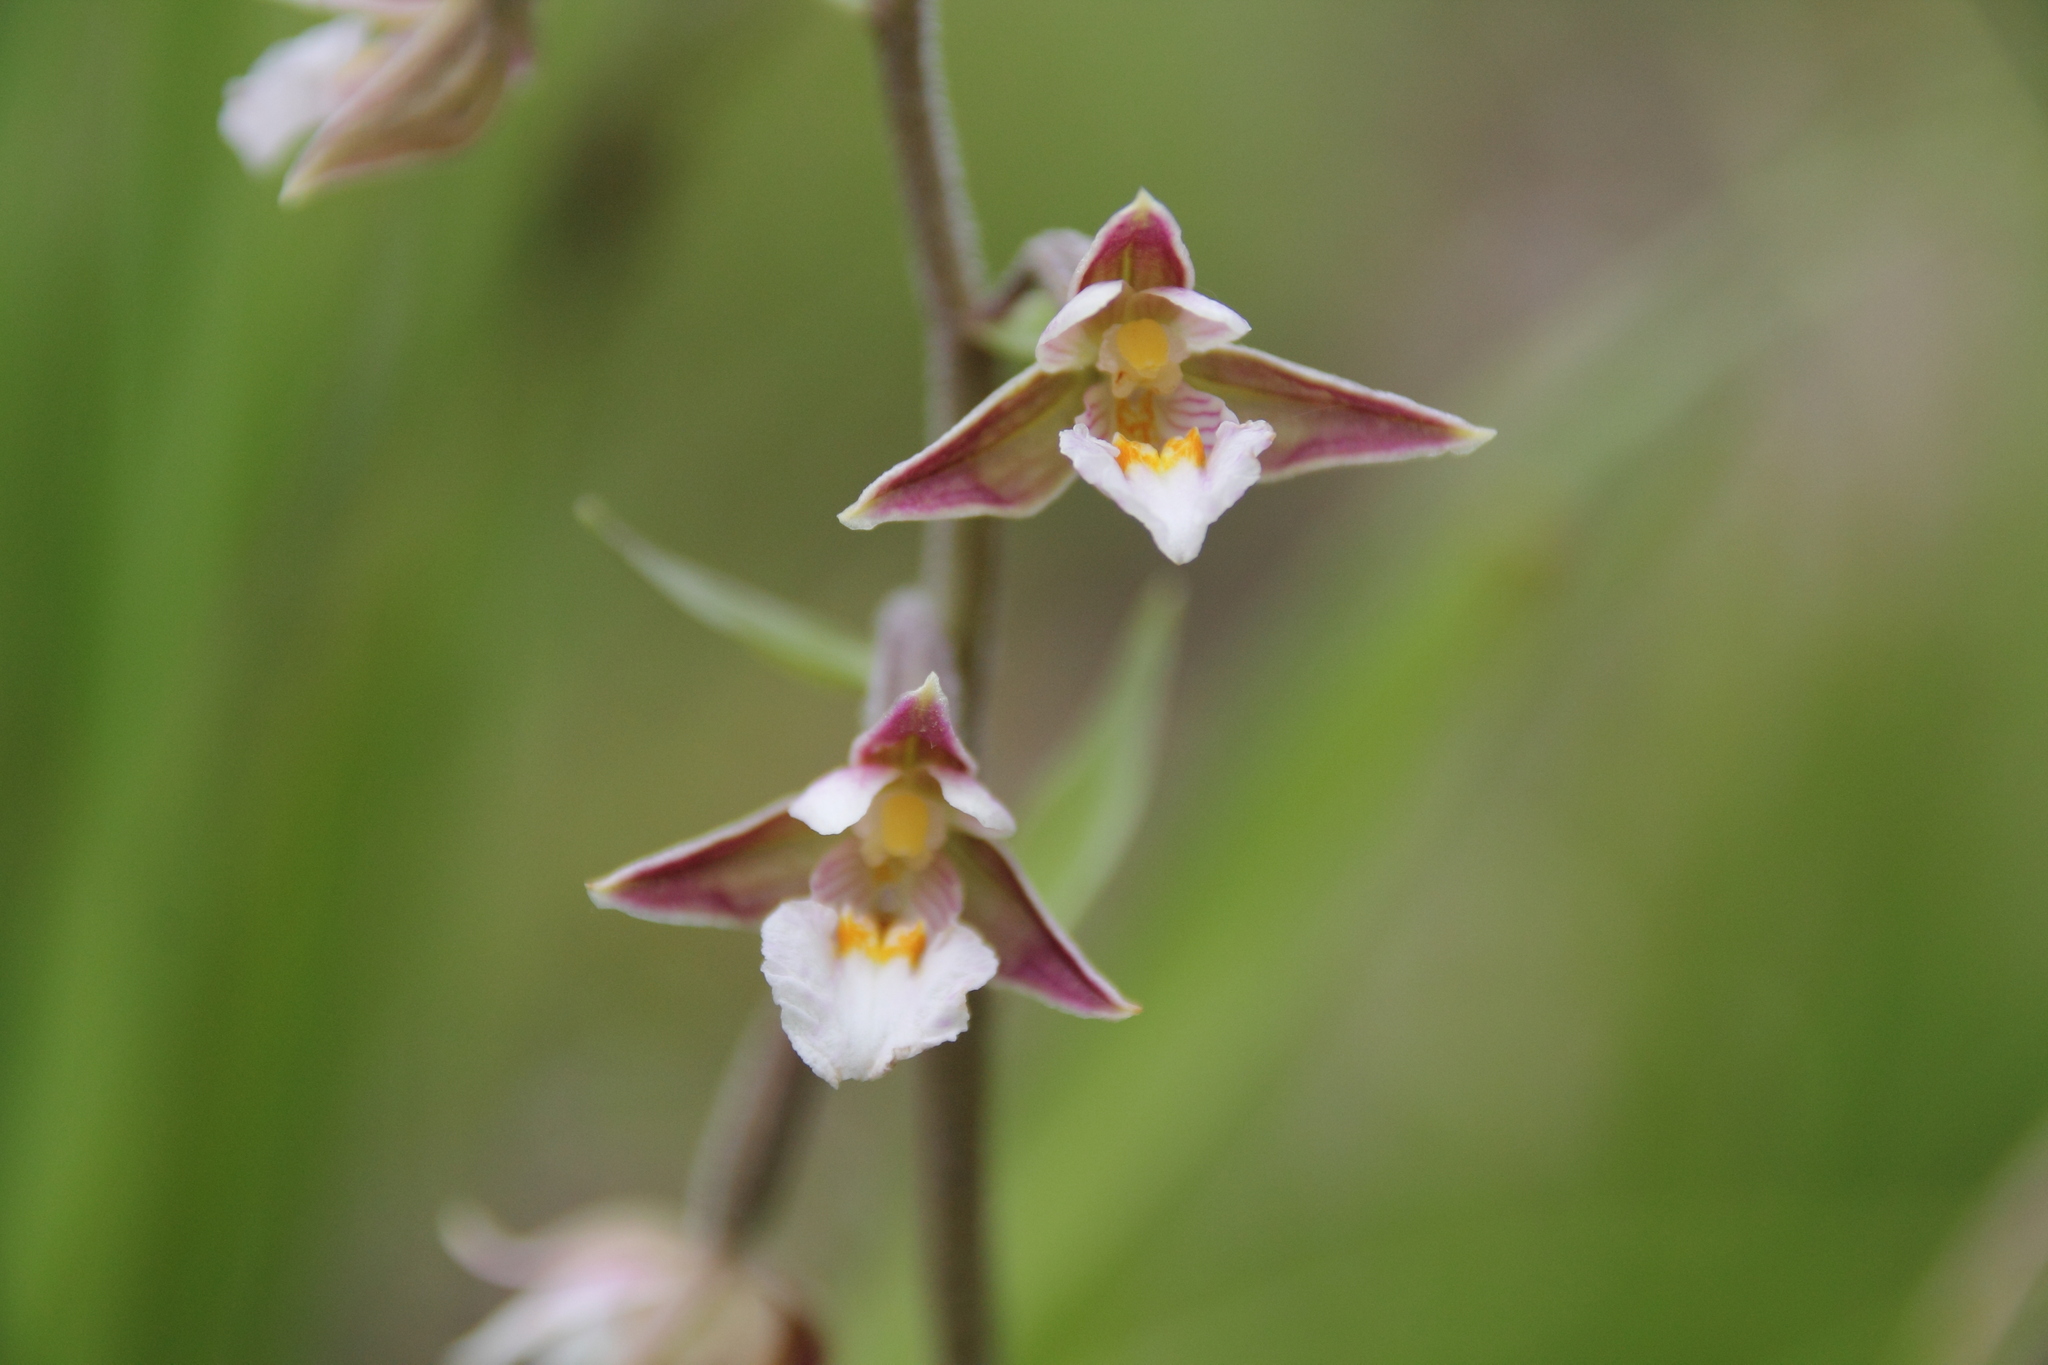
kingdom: Plantae
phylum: Tracheophyta
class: Liliopsida
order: Asparagales
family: Orchidaceae
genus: Epipactis
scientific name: Epipactis palustris
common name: Marsh helleborine
